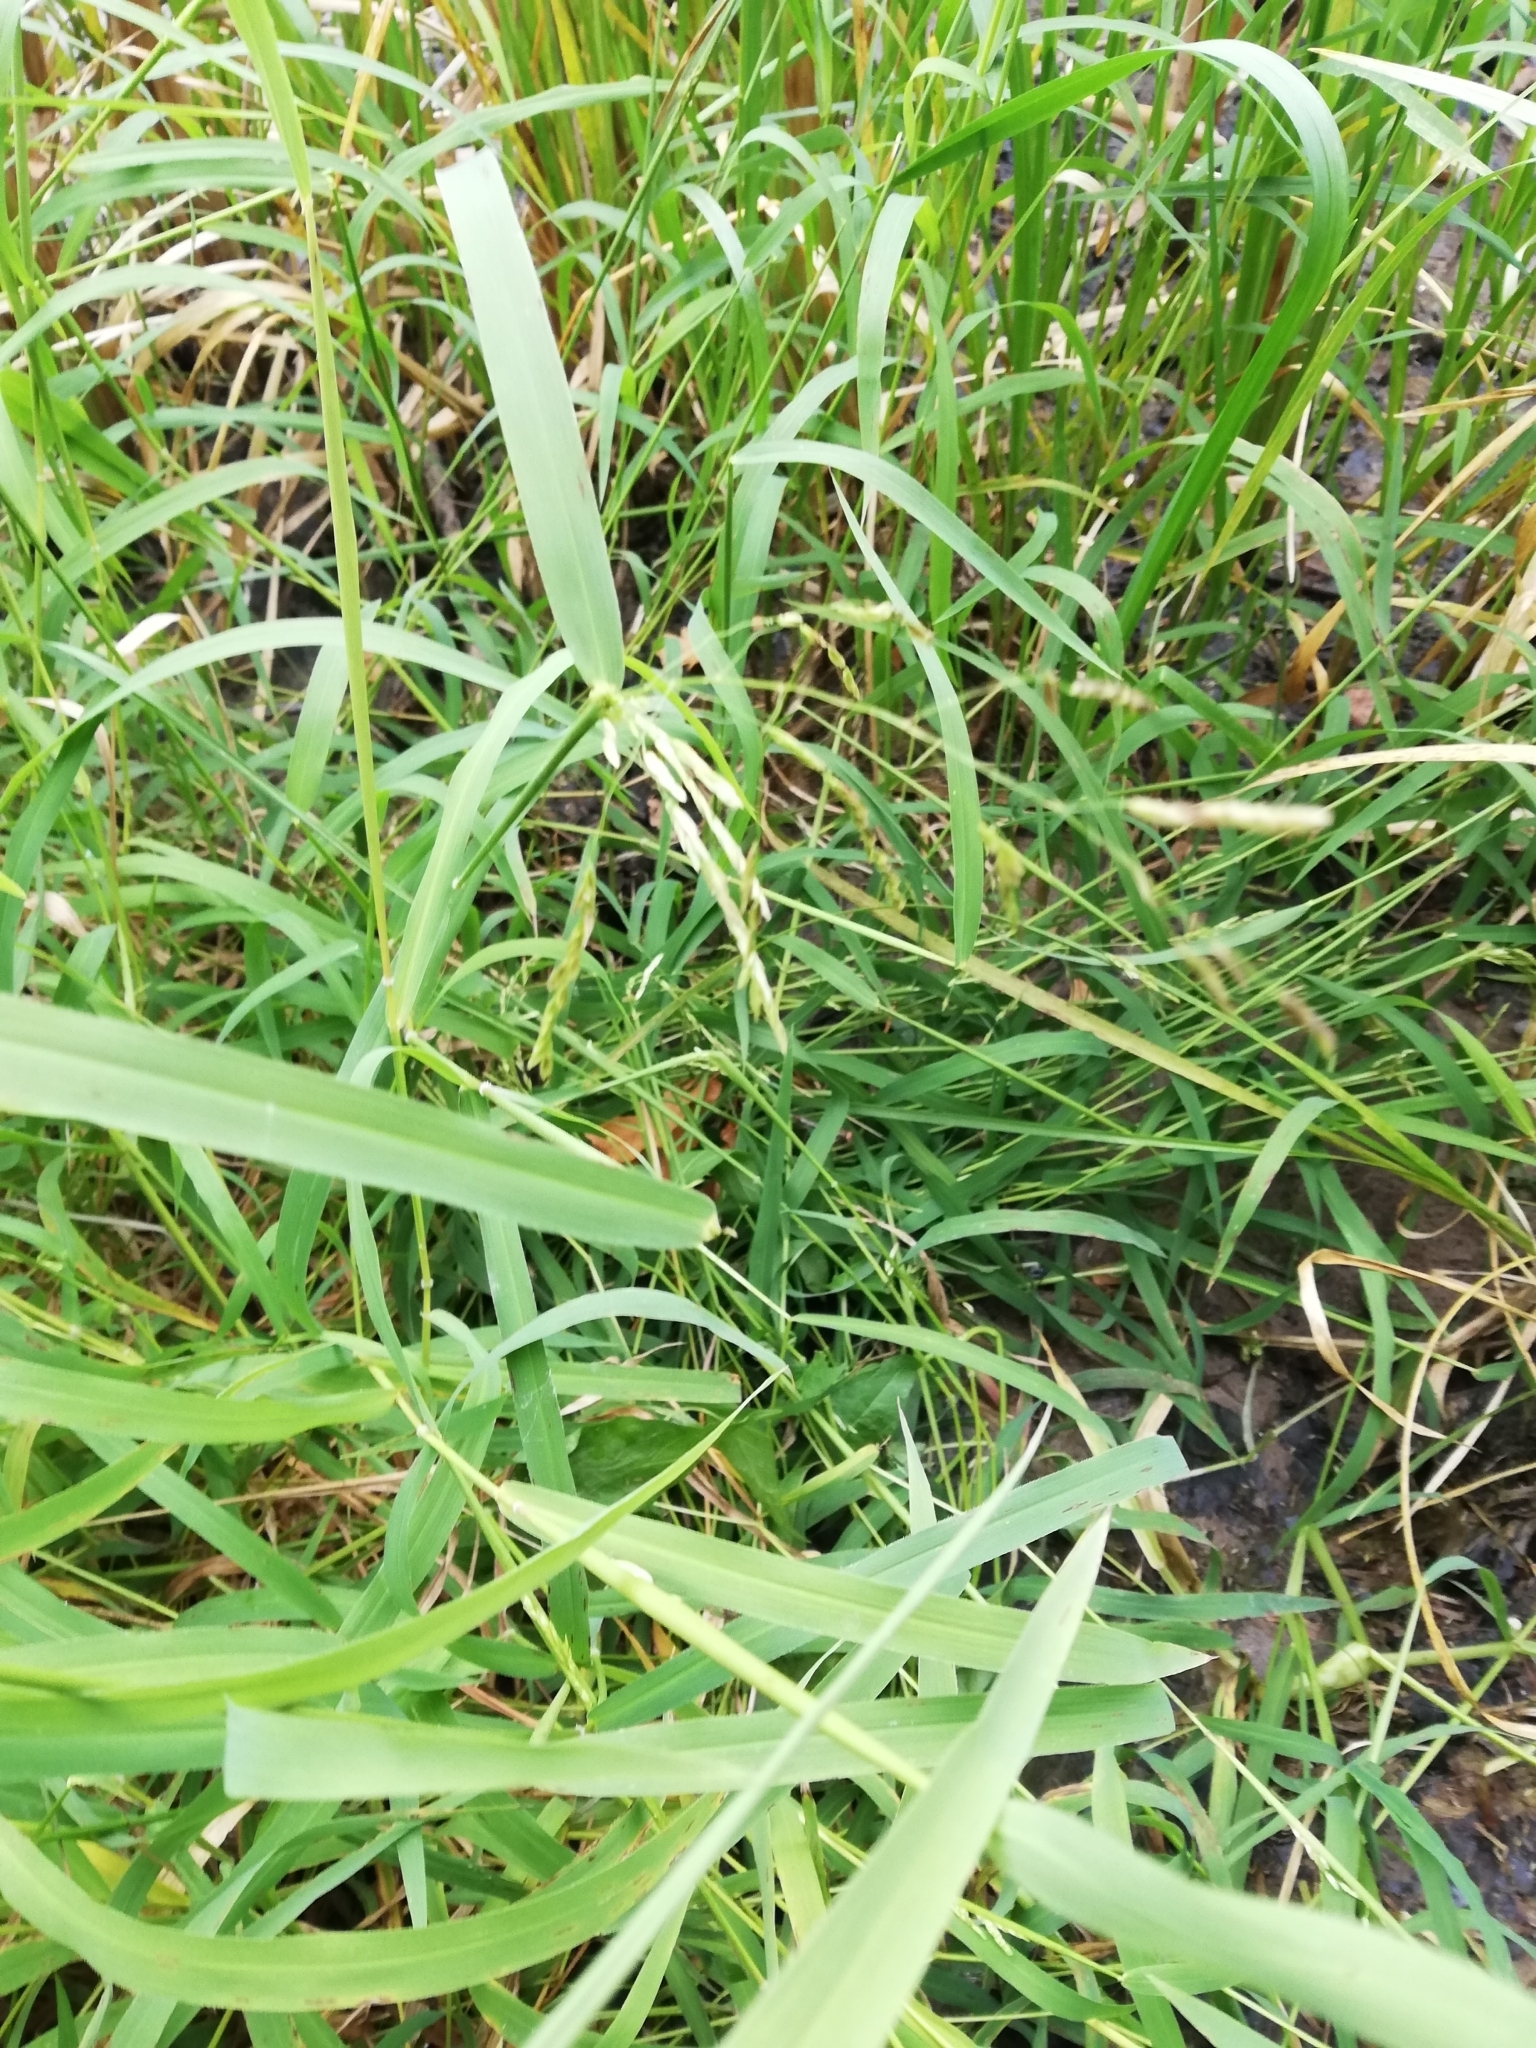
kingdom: Plantae
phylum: Tracheophyta
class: Liliopsida
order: Poales
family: Poaceae
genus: Leersia
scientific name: Leersia oryzoides
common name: Cut-grass
